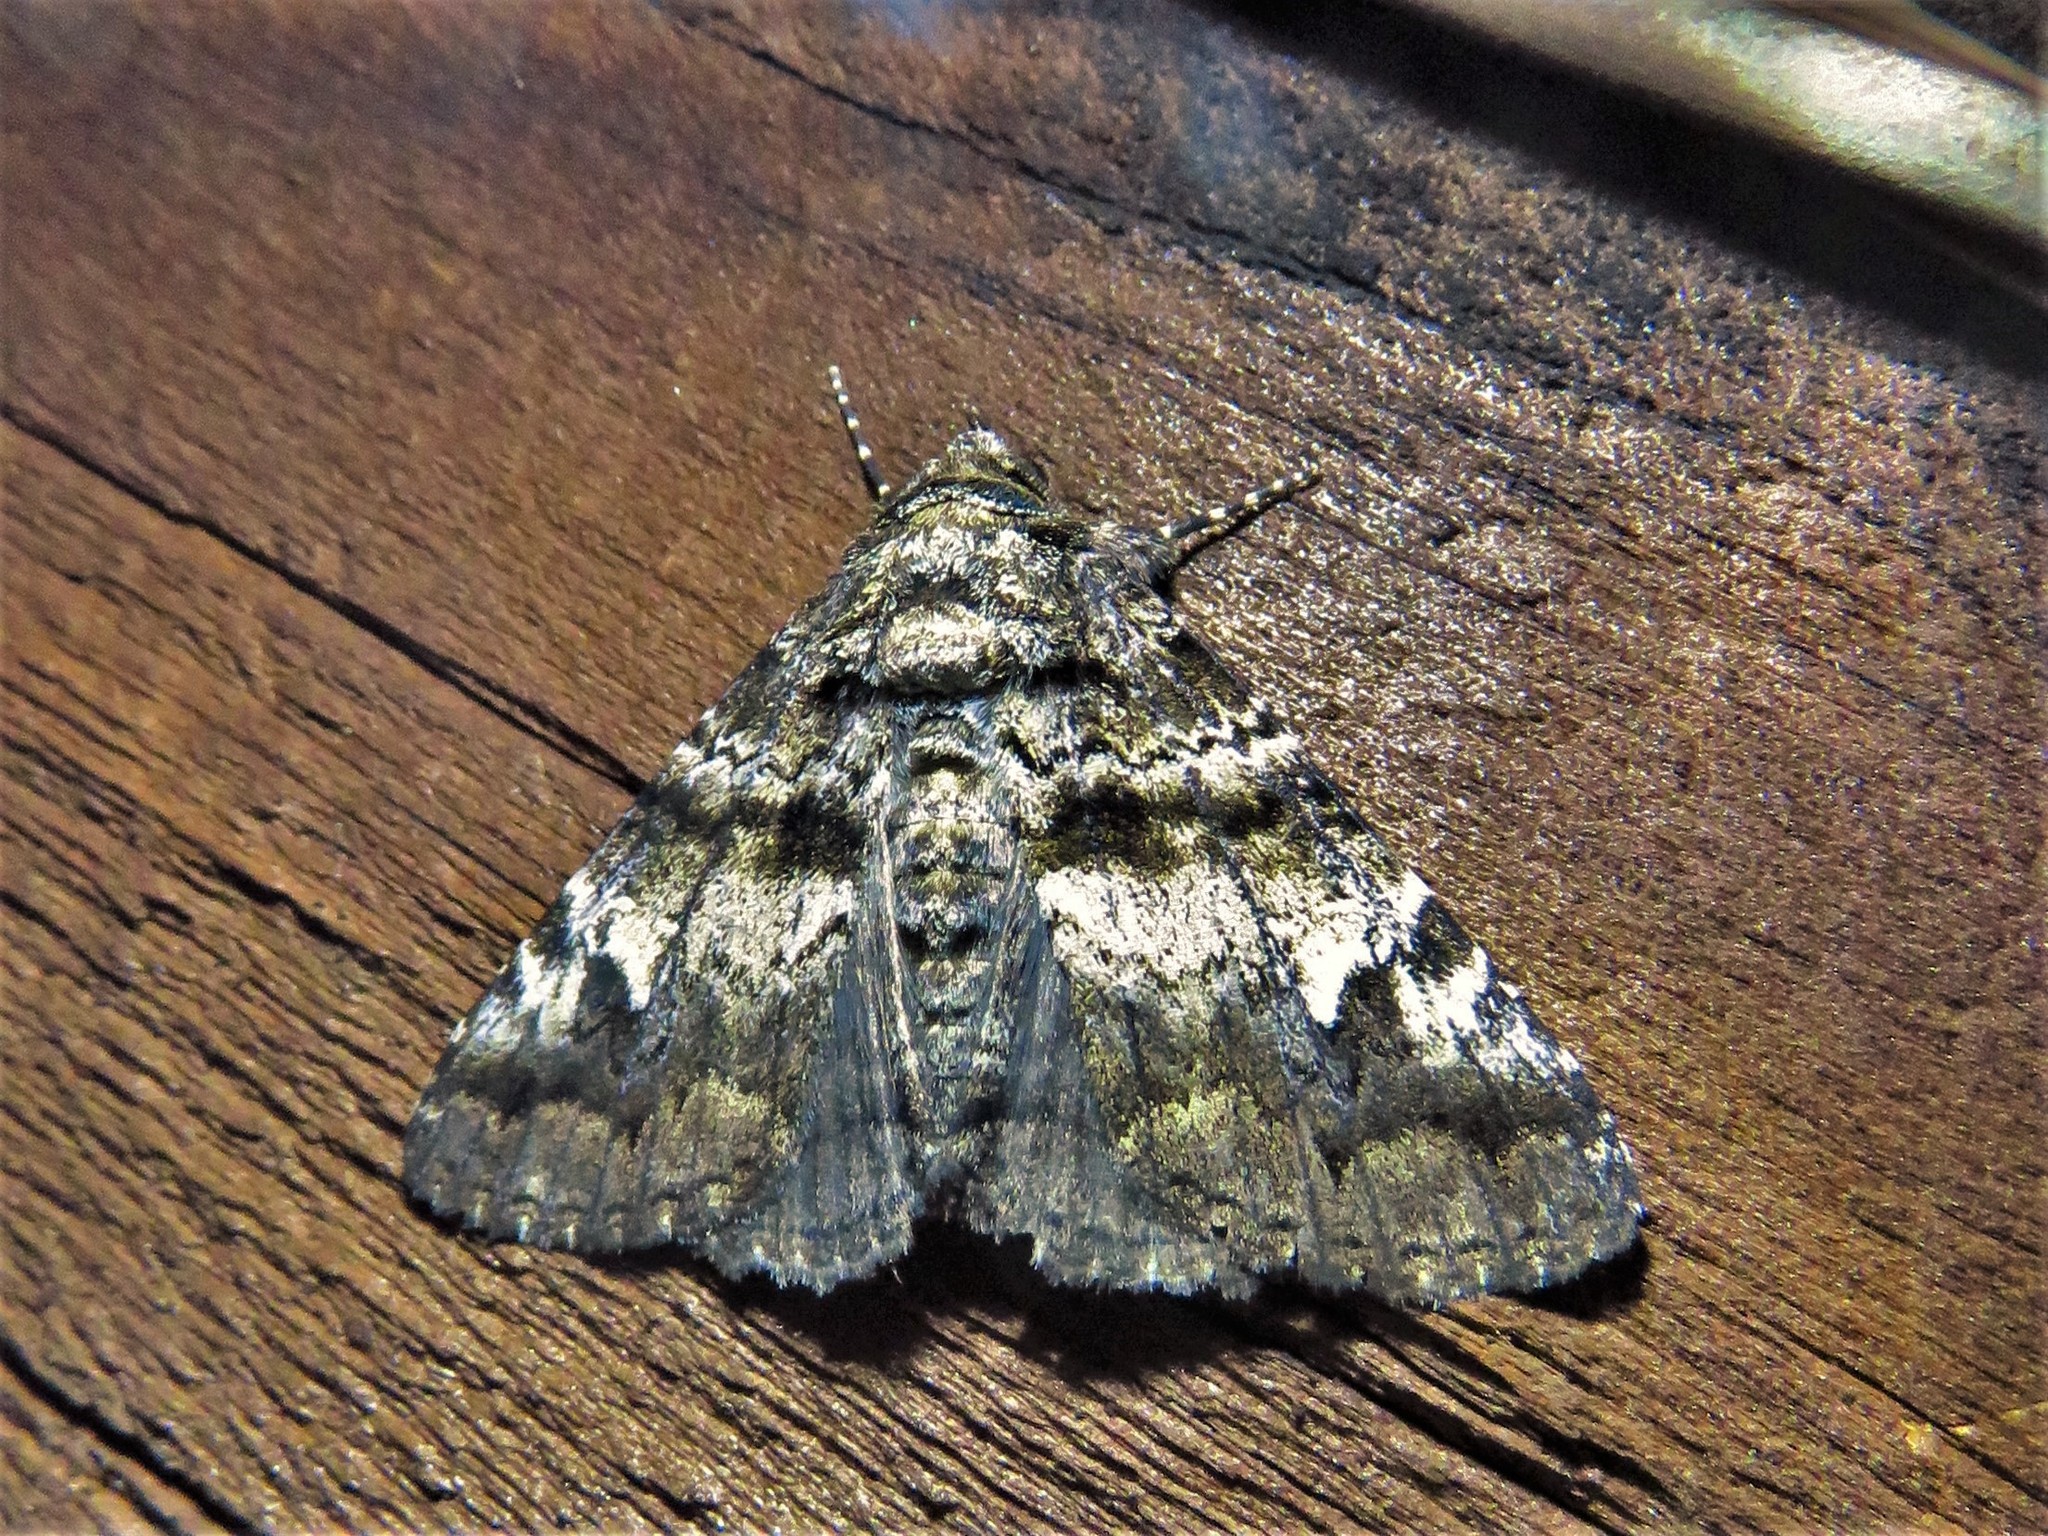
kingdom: Animalia
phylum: Arthropoda
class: Insecta
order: Lepidoptera
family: Erebidae
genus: Metria
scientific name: Metria amella
